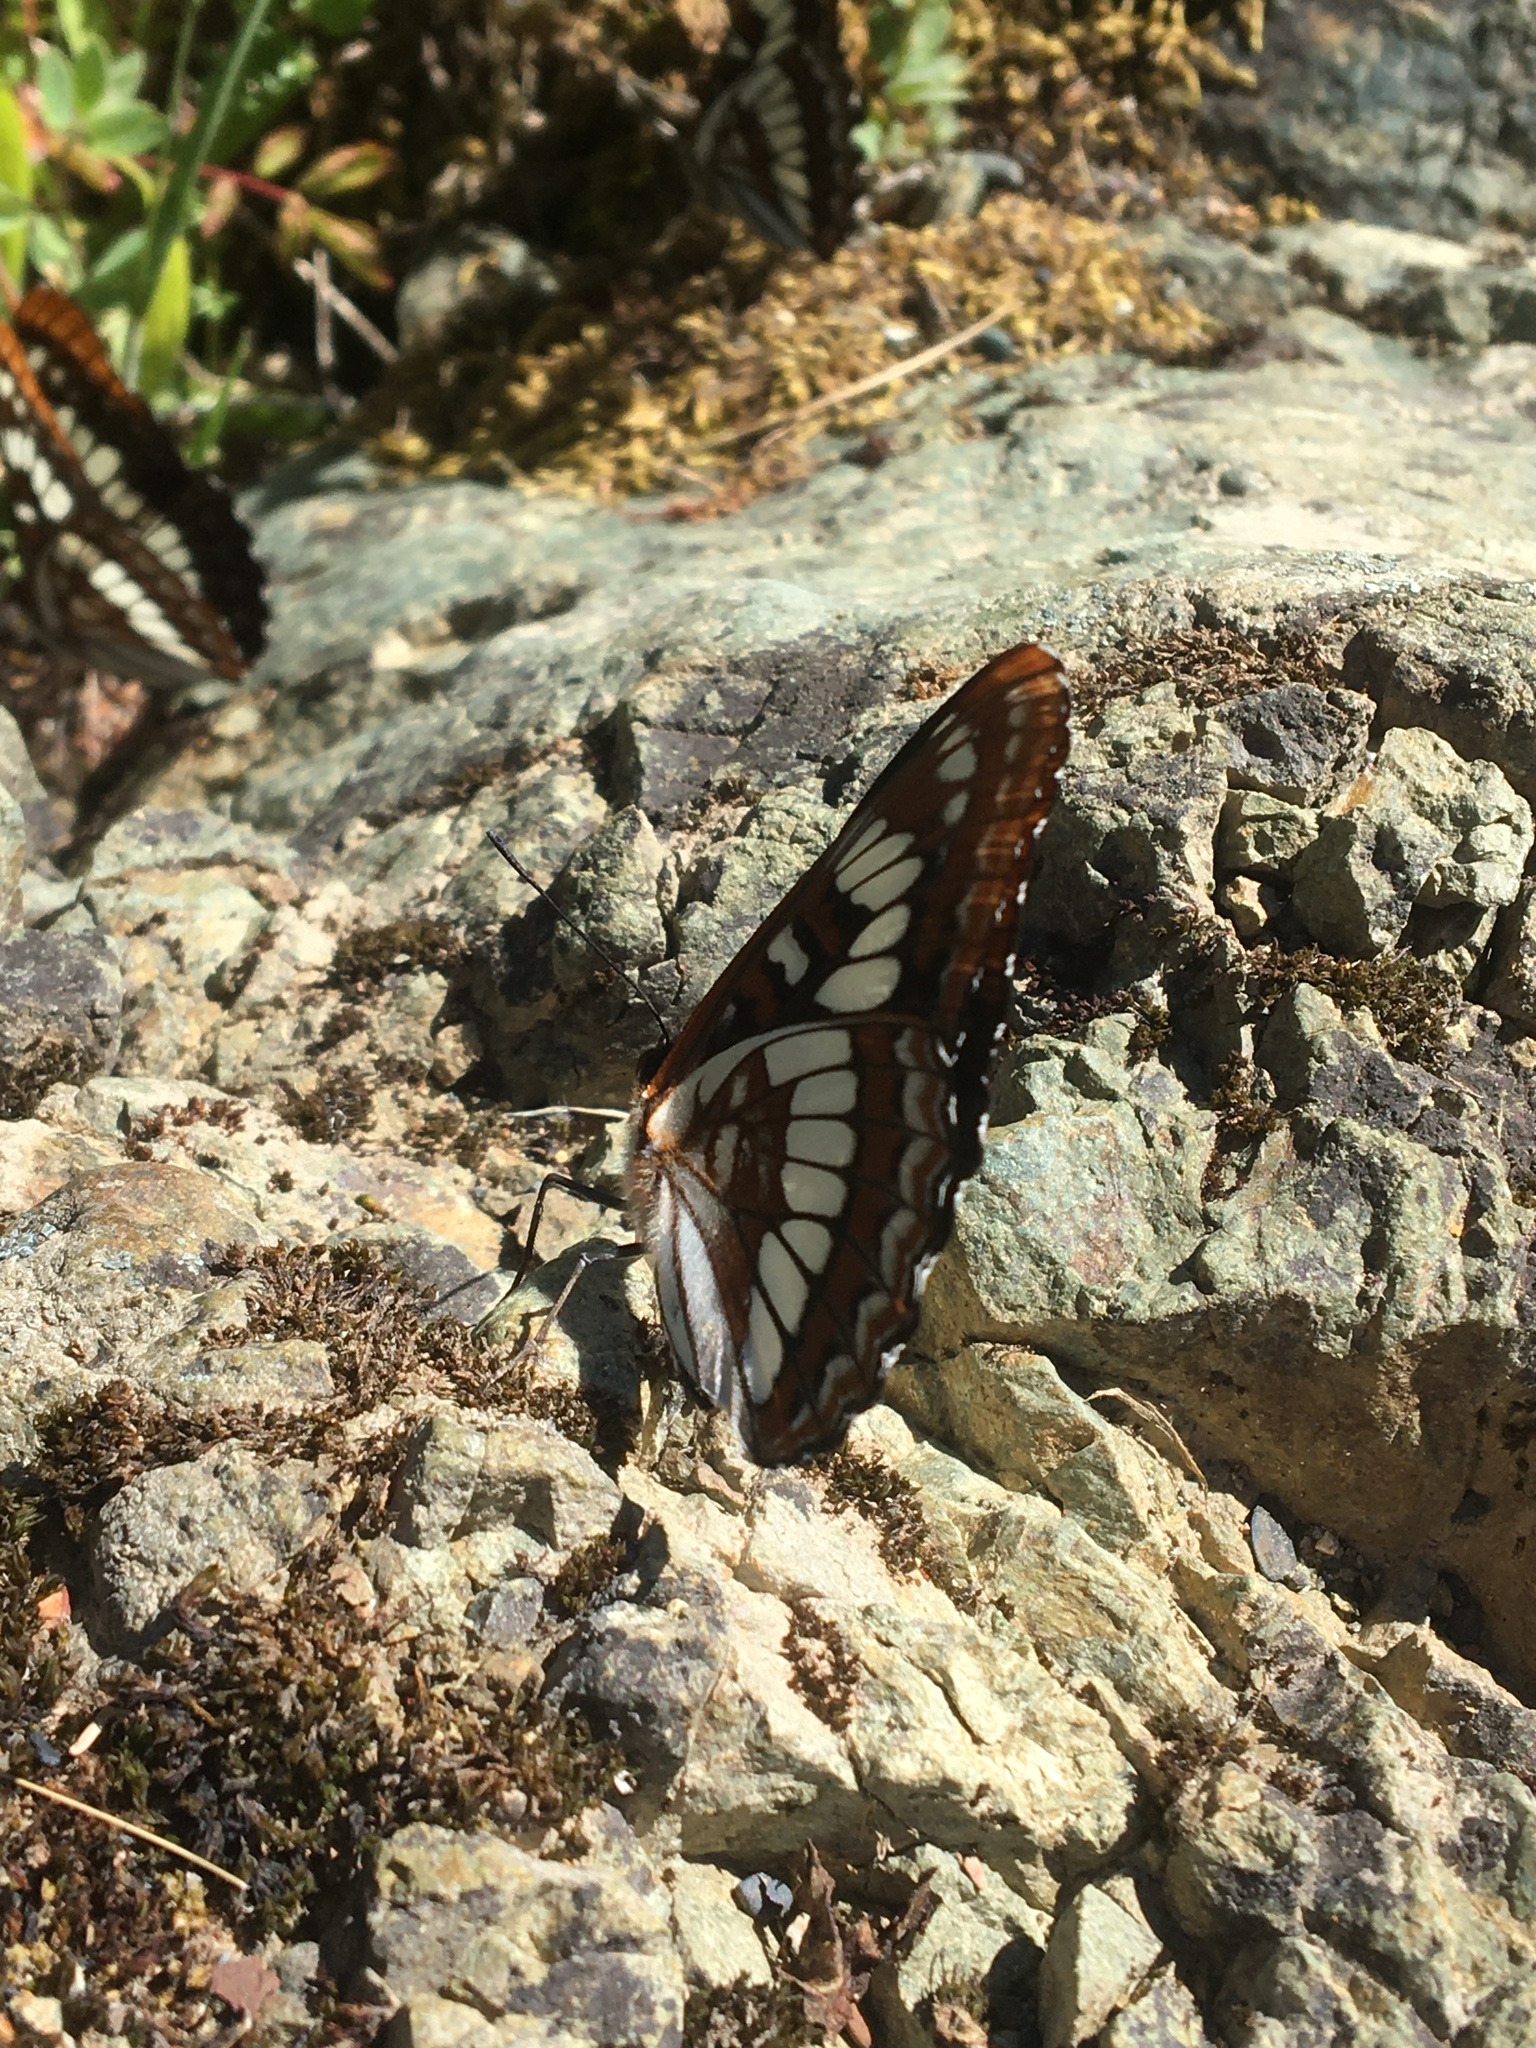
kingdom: Animalia
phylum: Arthropoda
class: Insecta
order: Lepidoptera
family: Nymphalidae
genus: Limenitis
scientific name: Limenitis lorquini
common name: Lorquin's admiral
